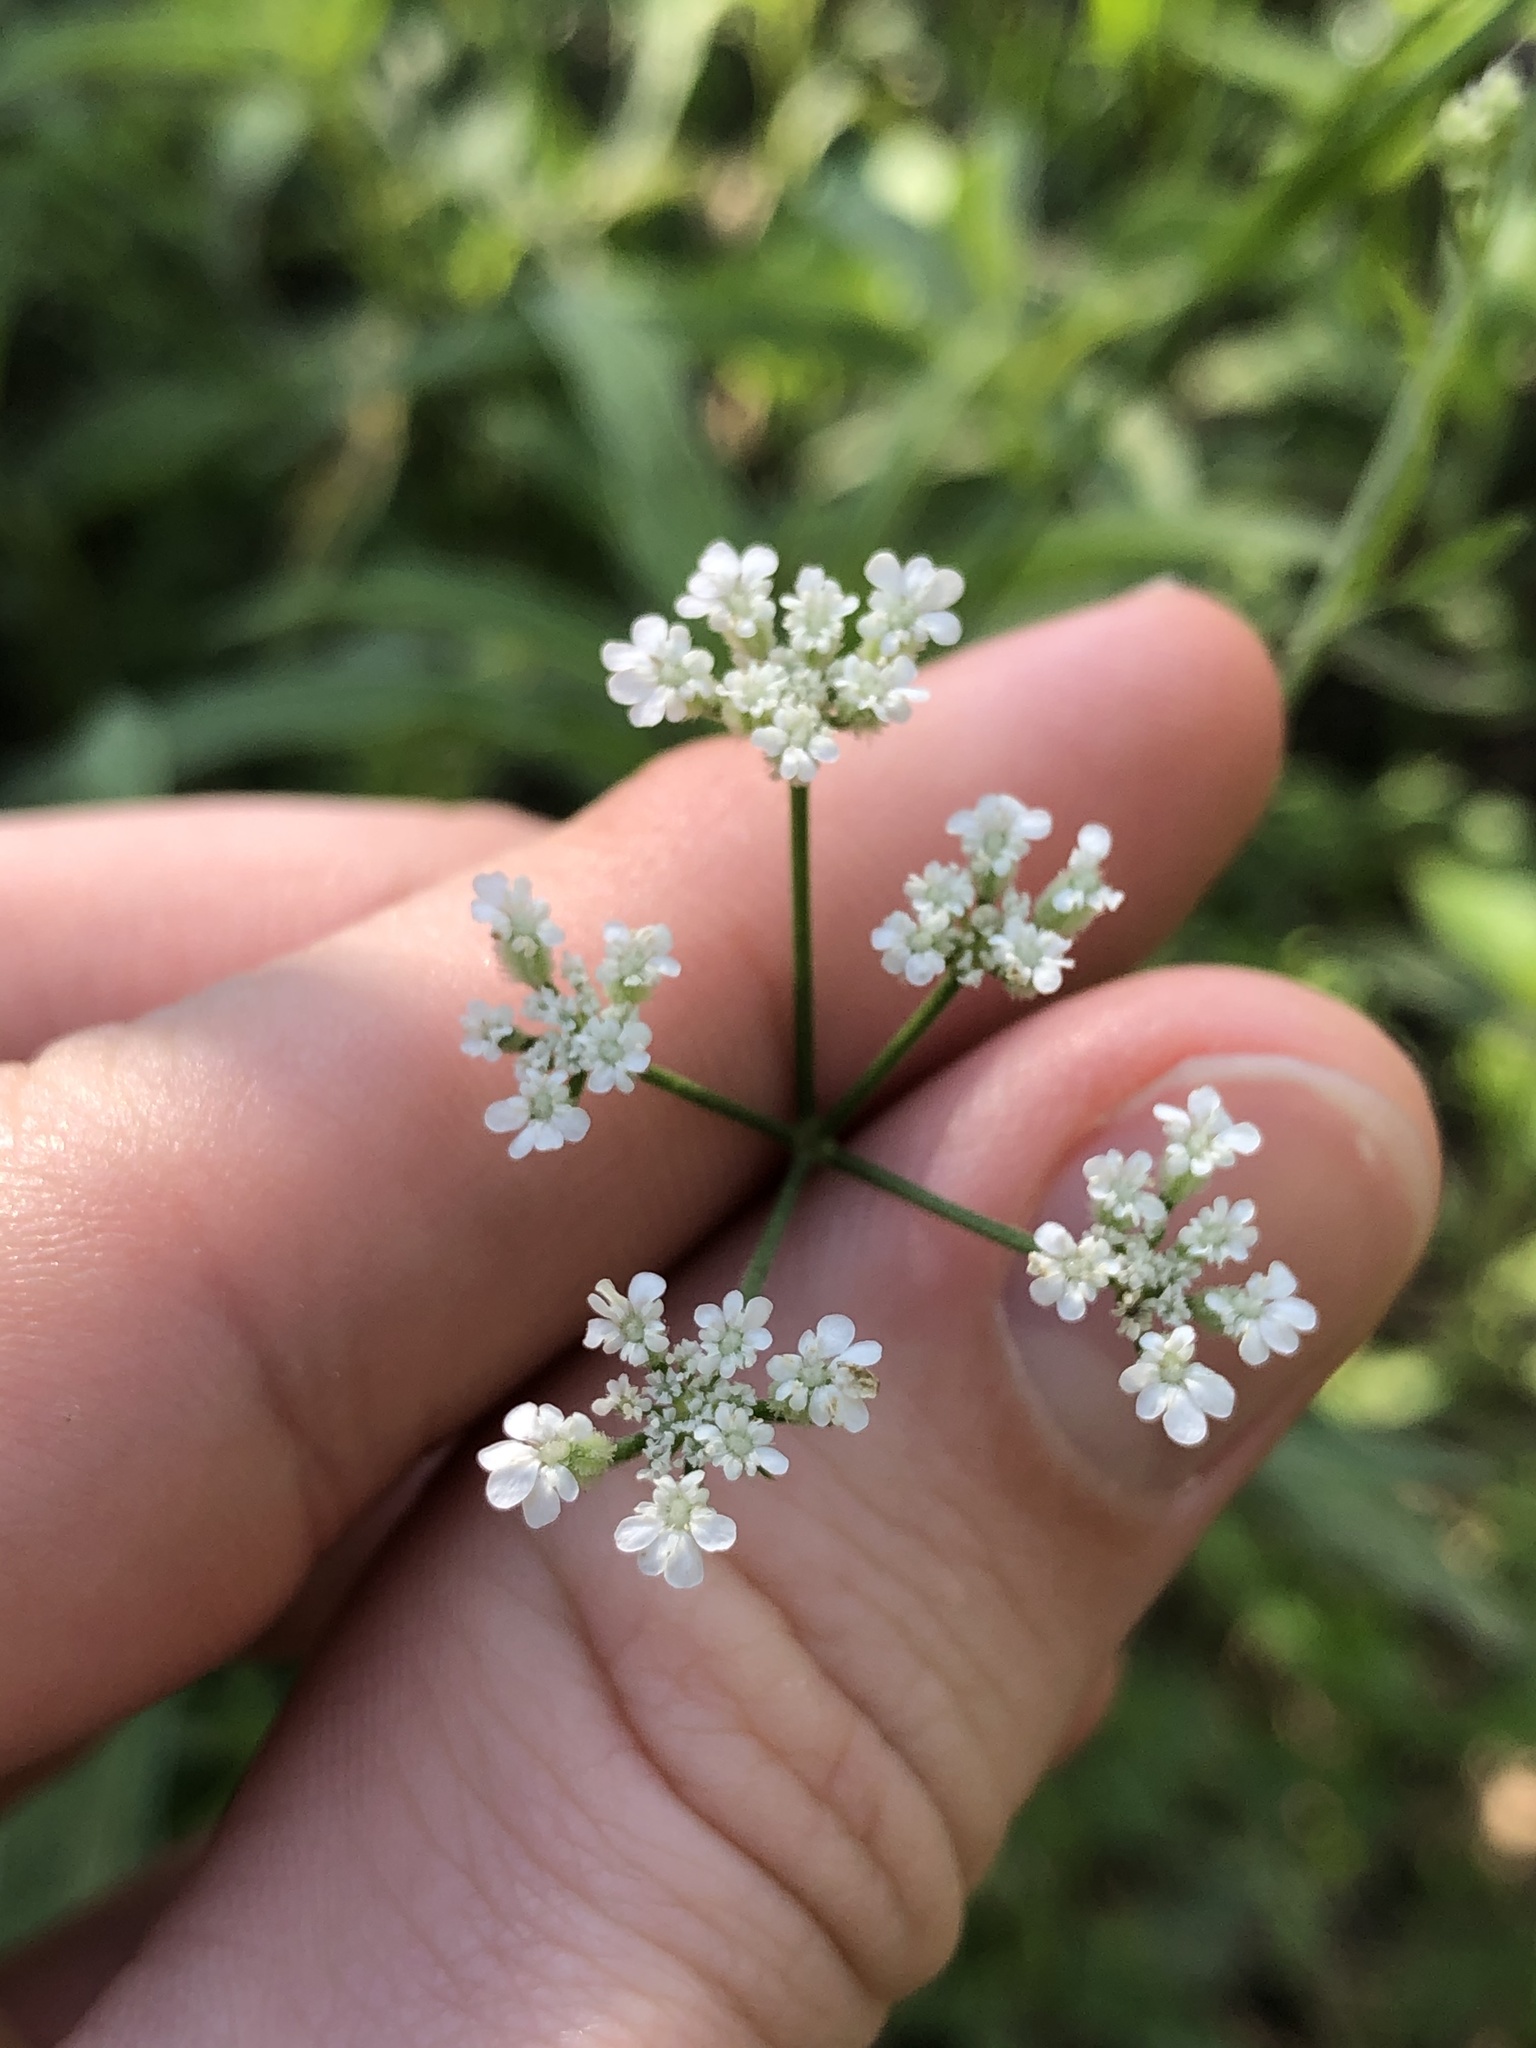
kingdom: Plantae
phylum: Tracheophyta
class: Magnoliopsida
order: Apiales
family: Apiaceae
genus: Torilis
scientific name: Torilis arvensis
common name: Spreading hedge-parsley
